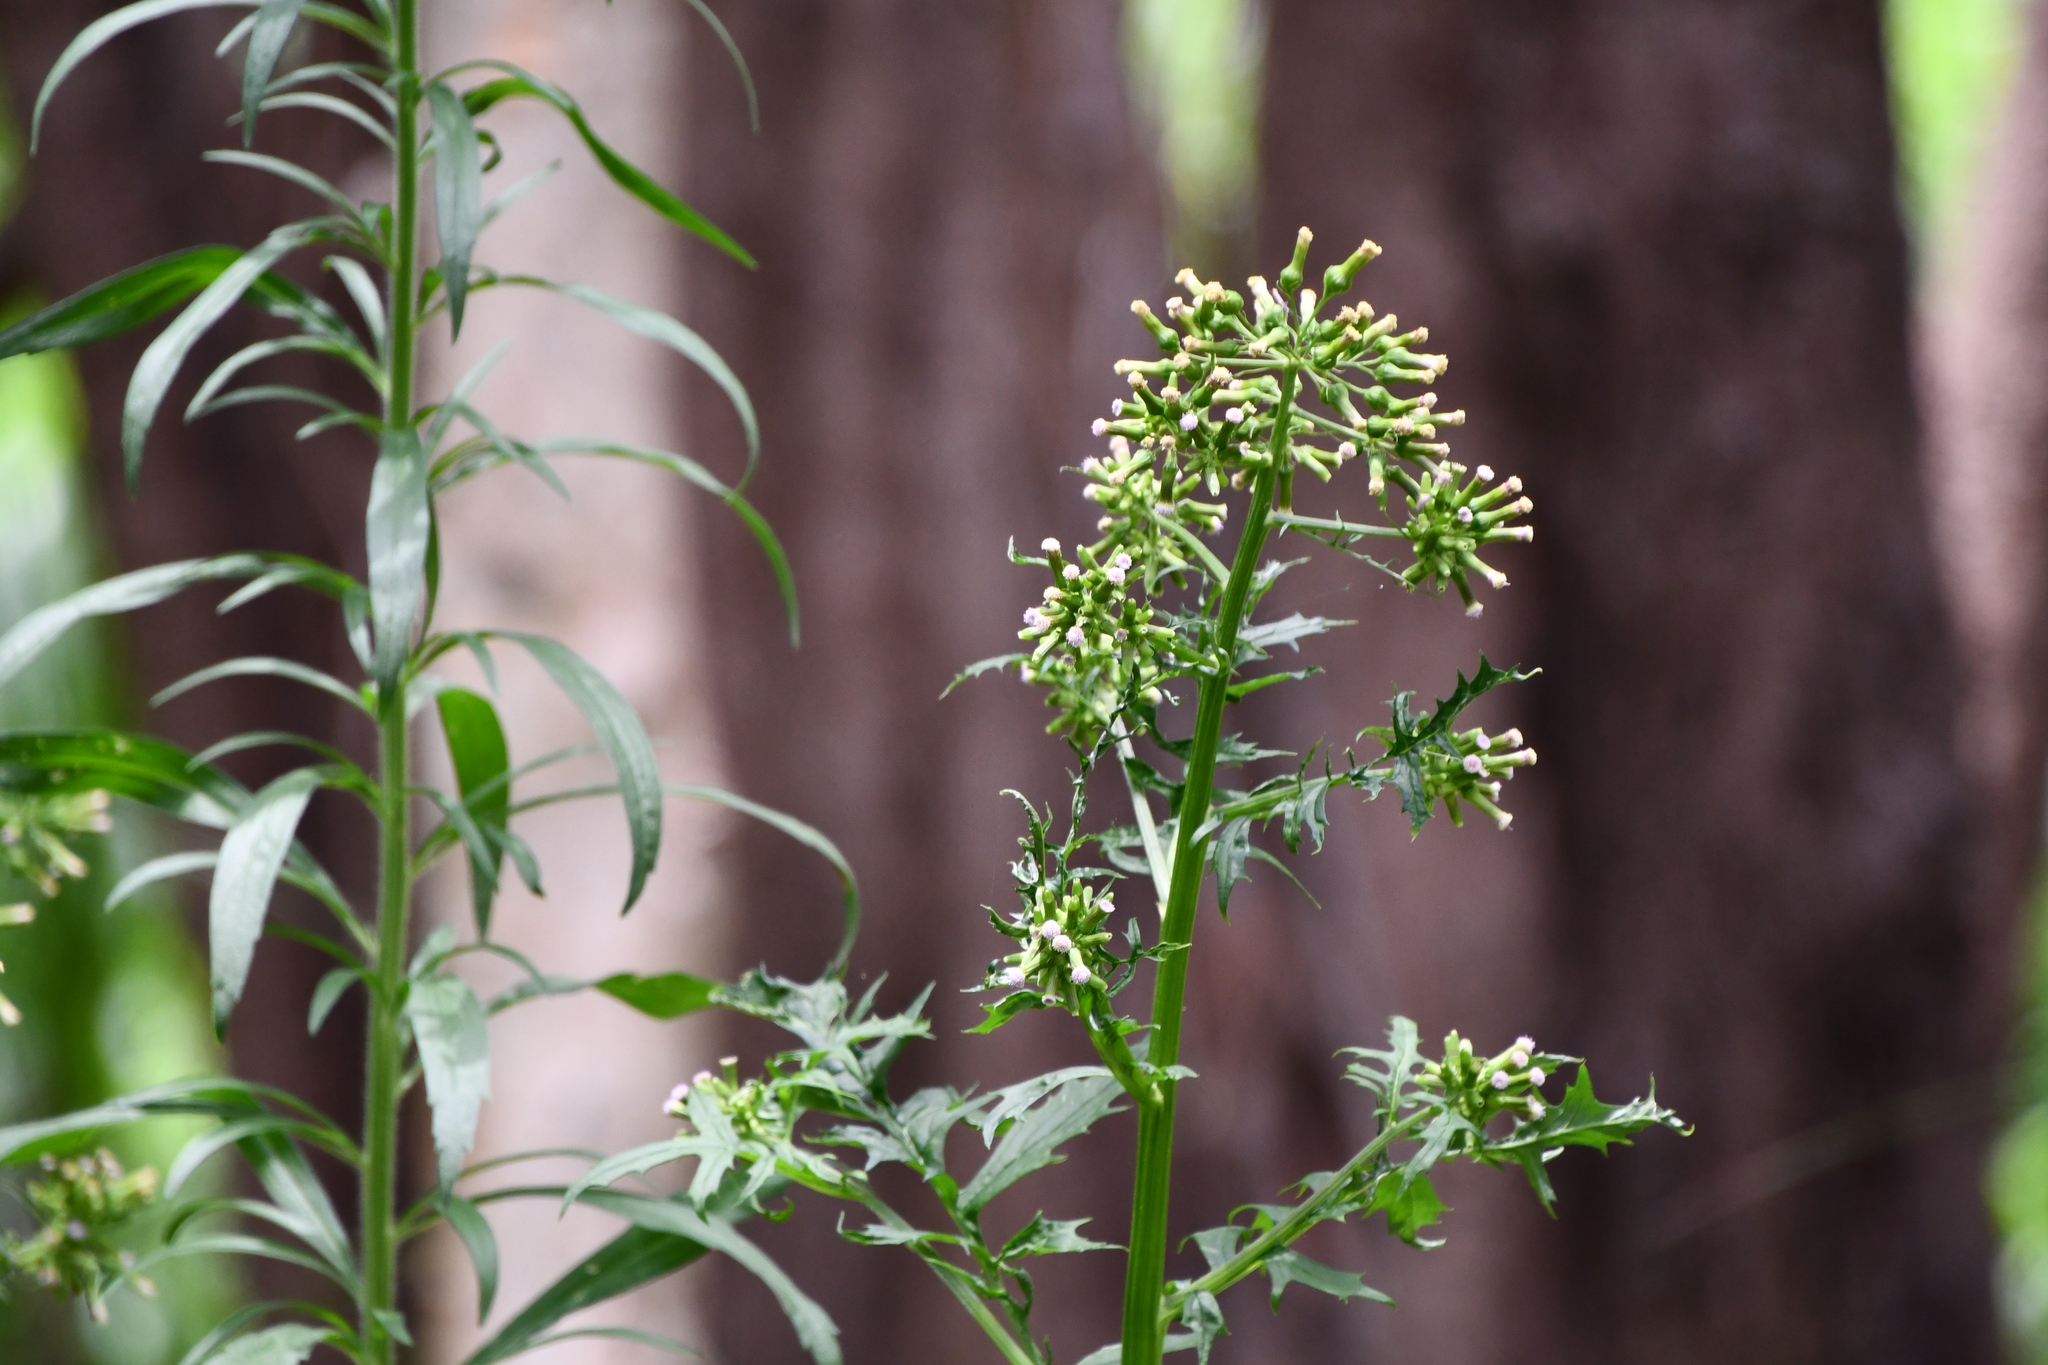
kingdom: Plantae
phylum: Tracheophyta
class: Magnoliopsida
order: Asterales
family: Asteraceae
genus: Erechtites
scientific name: Erechtites valerianifolius
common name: Tropical burnweed
